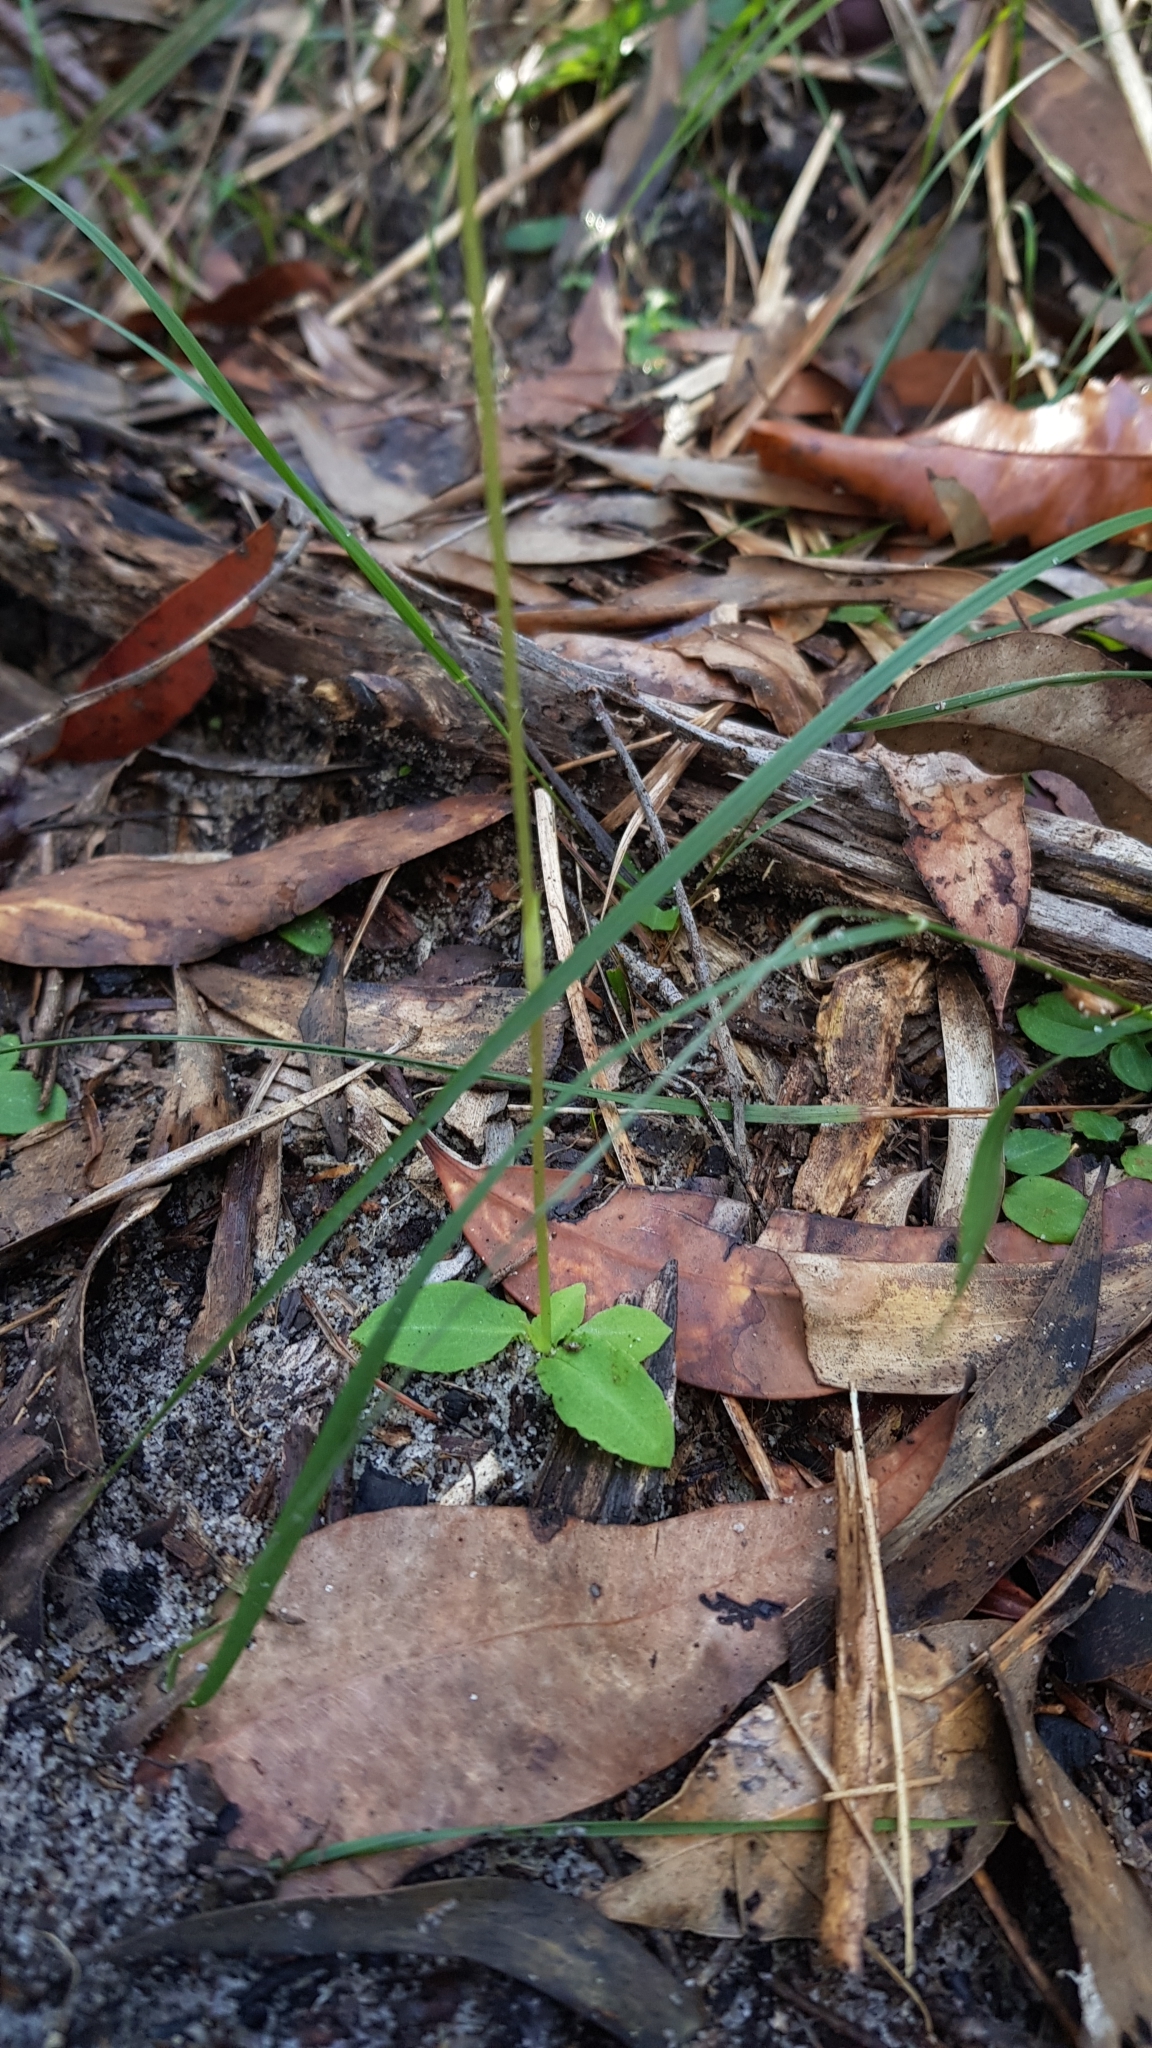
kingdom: Plantae
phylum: Tracheophyta
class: Liliopsida
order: Asparagales
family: Orchidaceae
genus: Pterostylis
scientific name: Pterostylis acuminata
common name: Pointed greenhood
